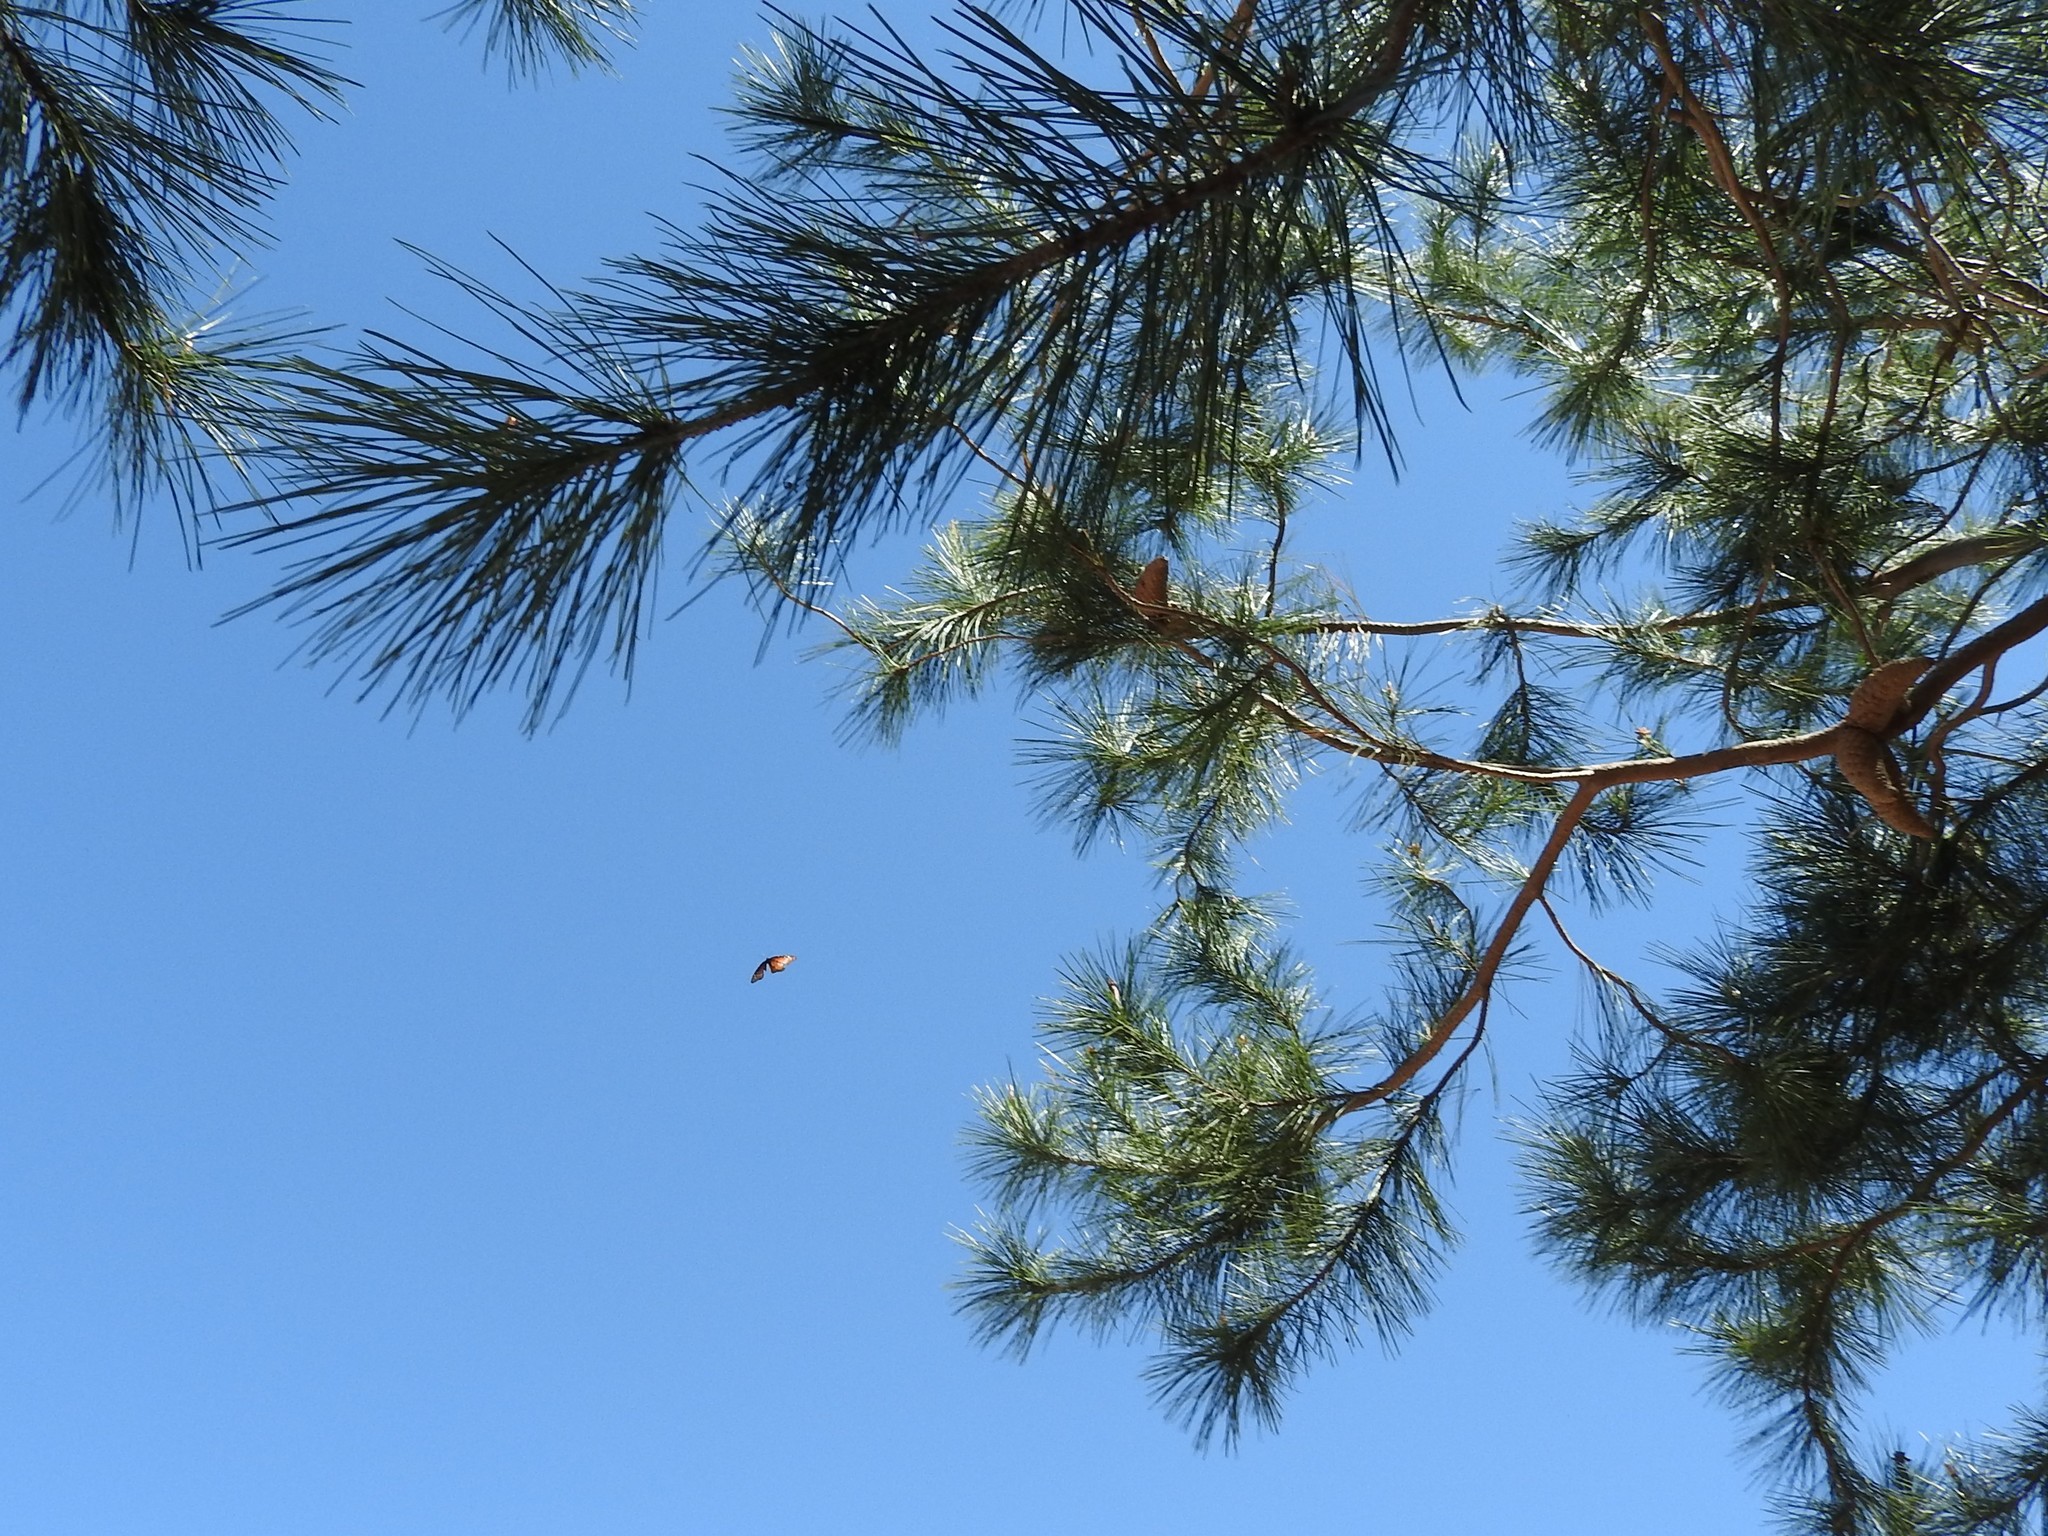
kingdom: Animalia
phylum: Arthropoda
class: Insecta
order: Lepidoptera
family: Nymphalidae
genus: Danaus
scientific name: Danaus plexippus
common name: Monarch
